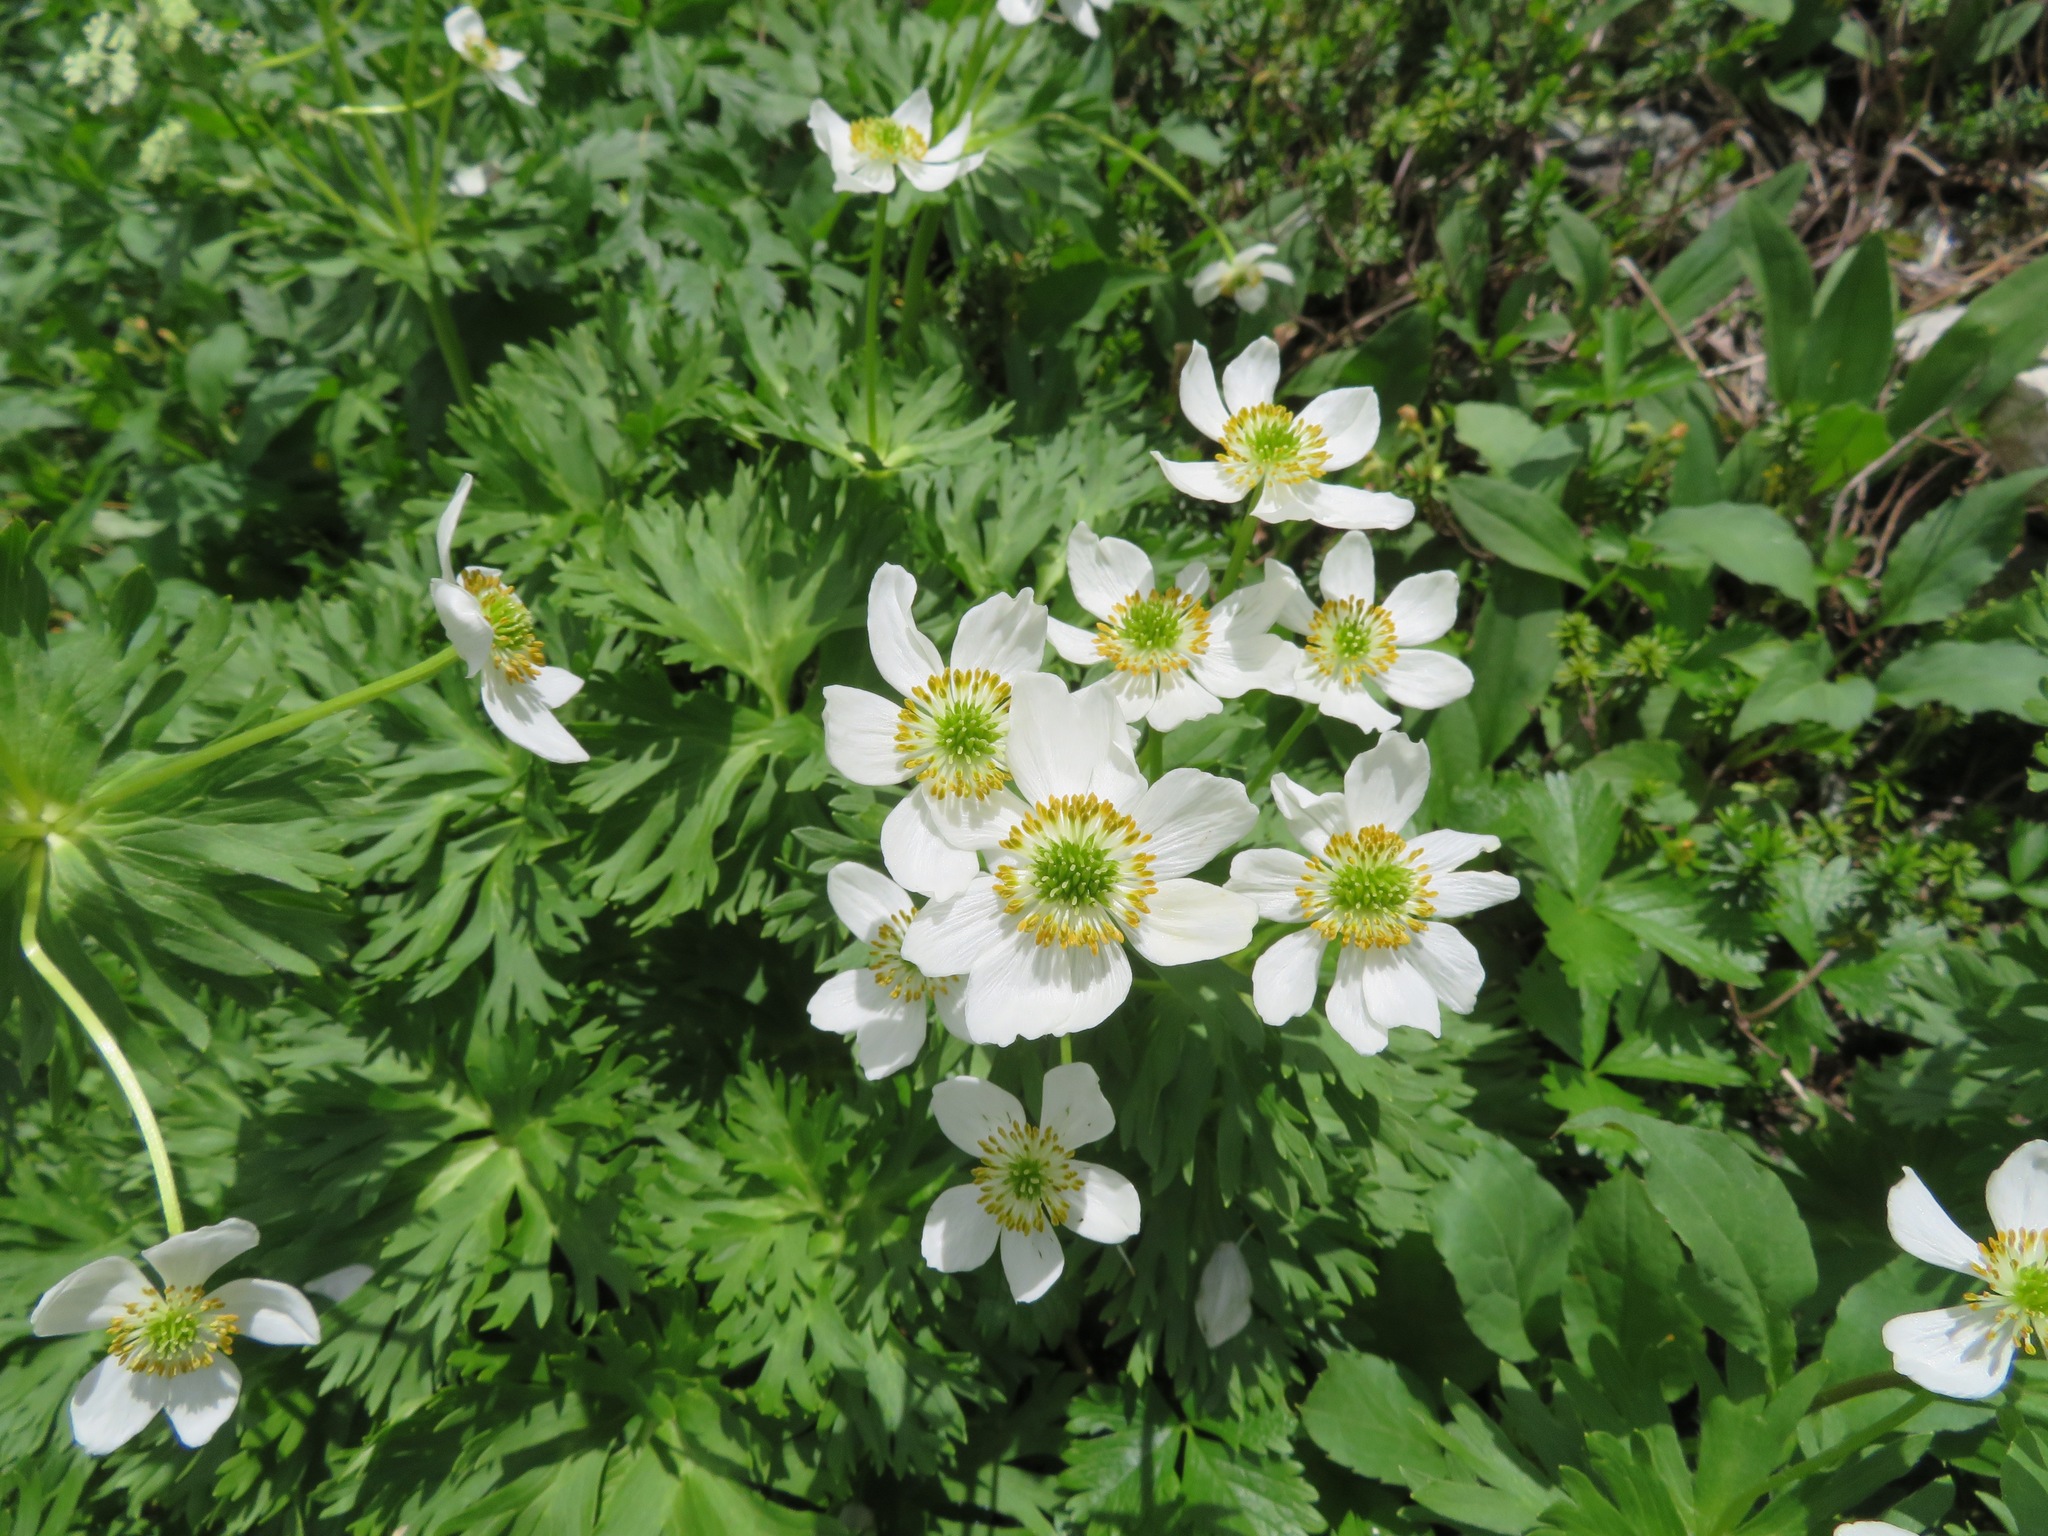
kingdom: Plantae
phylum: Tracheophyta
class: Magnoliopsida
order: Ranunculales
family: Ranunculaceae
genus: Anemonastrum
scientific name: Anemonastrum narcissiflorum
